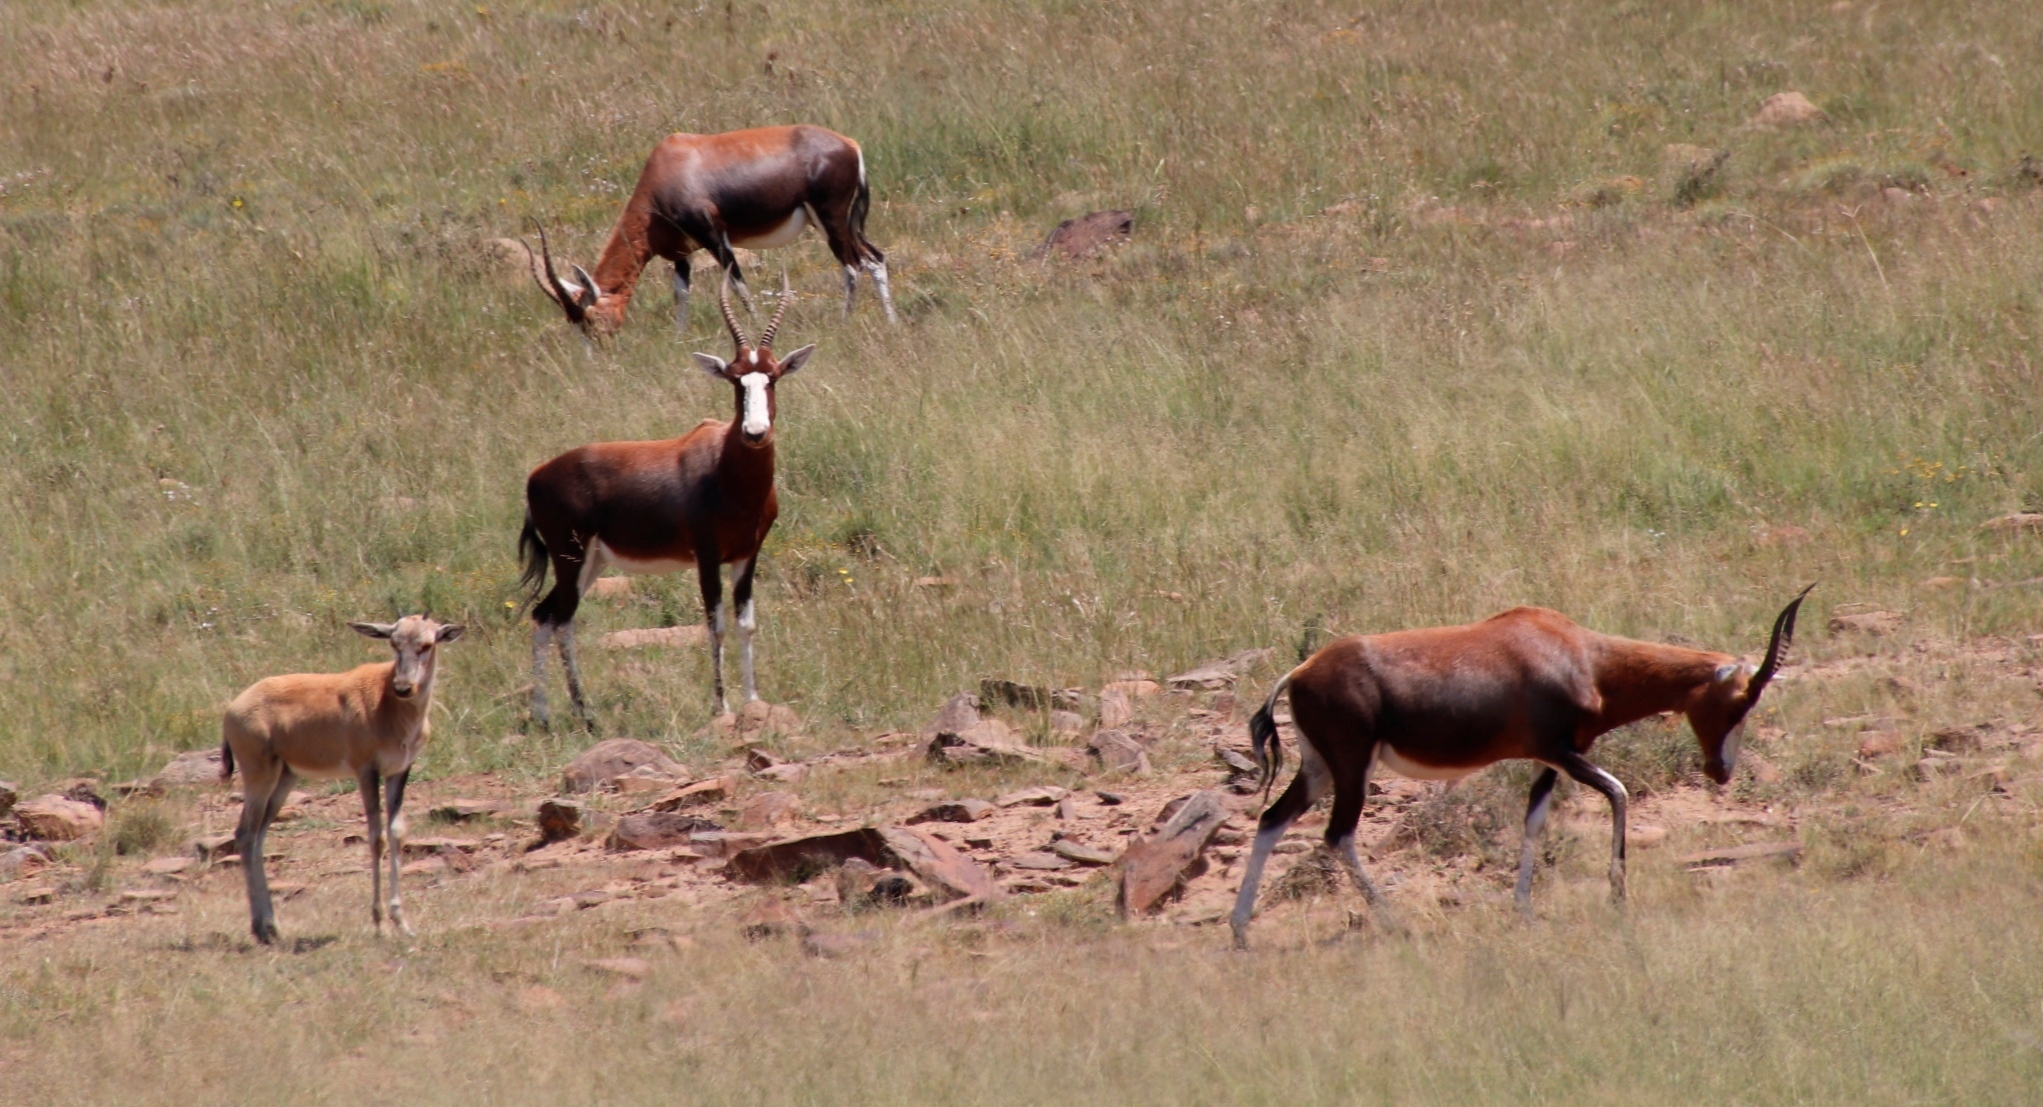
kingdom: Animalia
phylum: Chordata
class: Mammalia
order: Artiodactyla
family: Bovidae
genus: Damaliscus
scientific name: Damaliscus pygargus
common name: Bontebok
